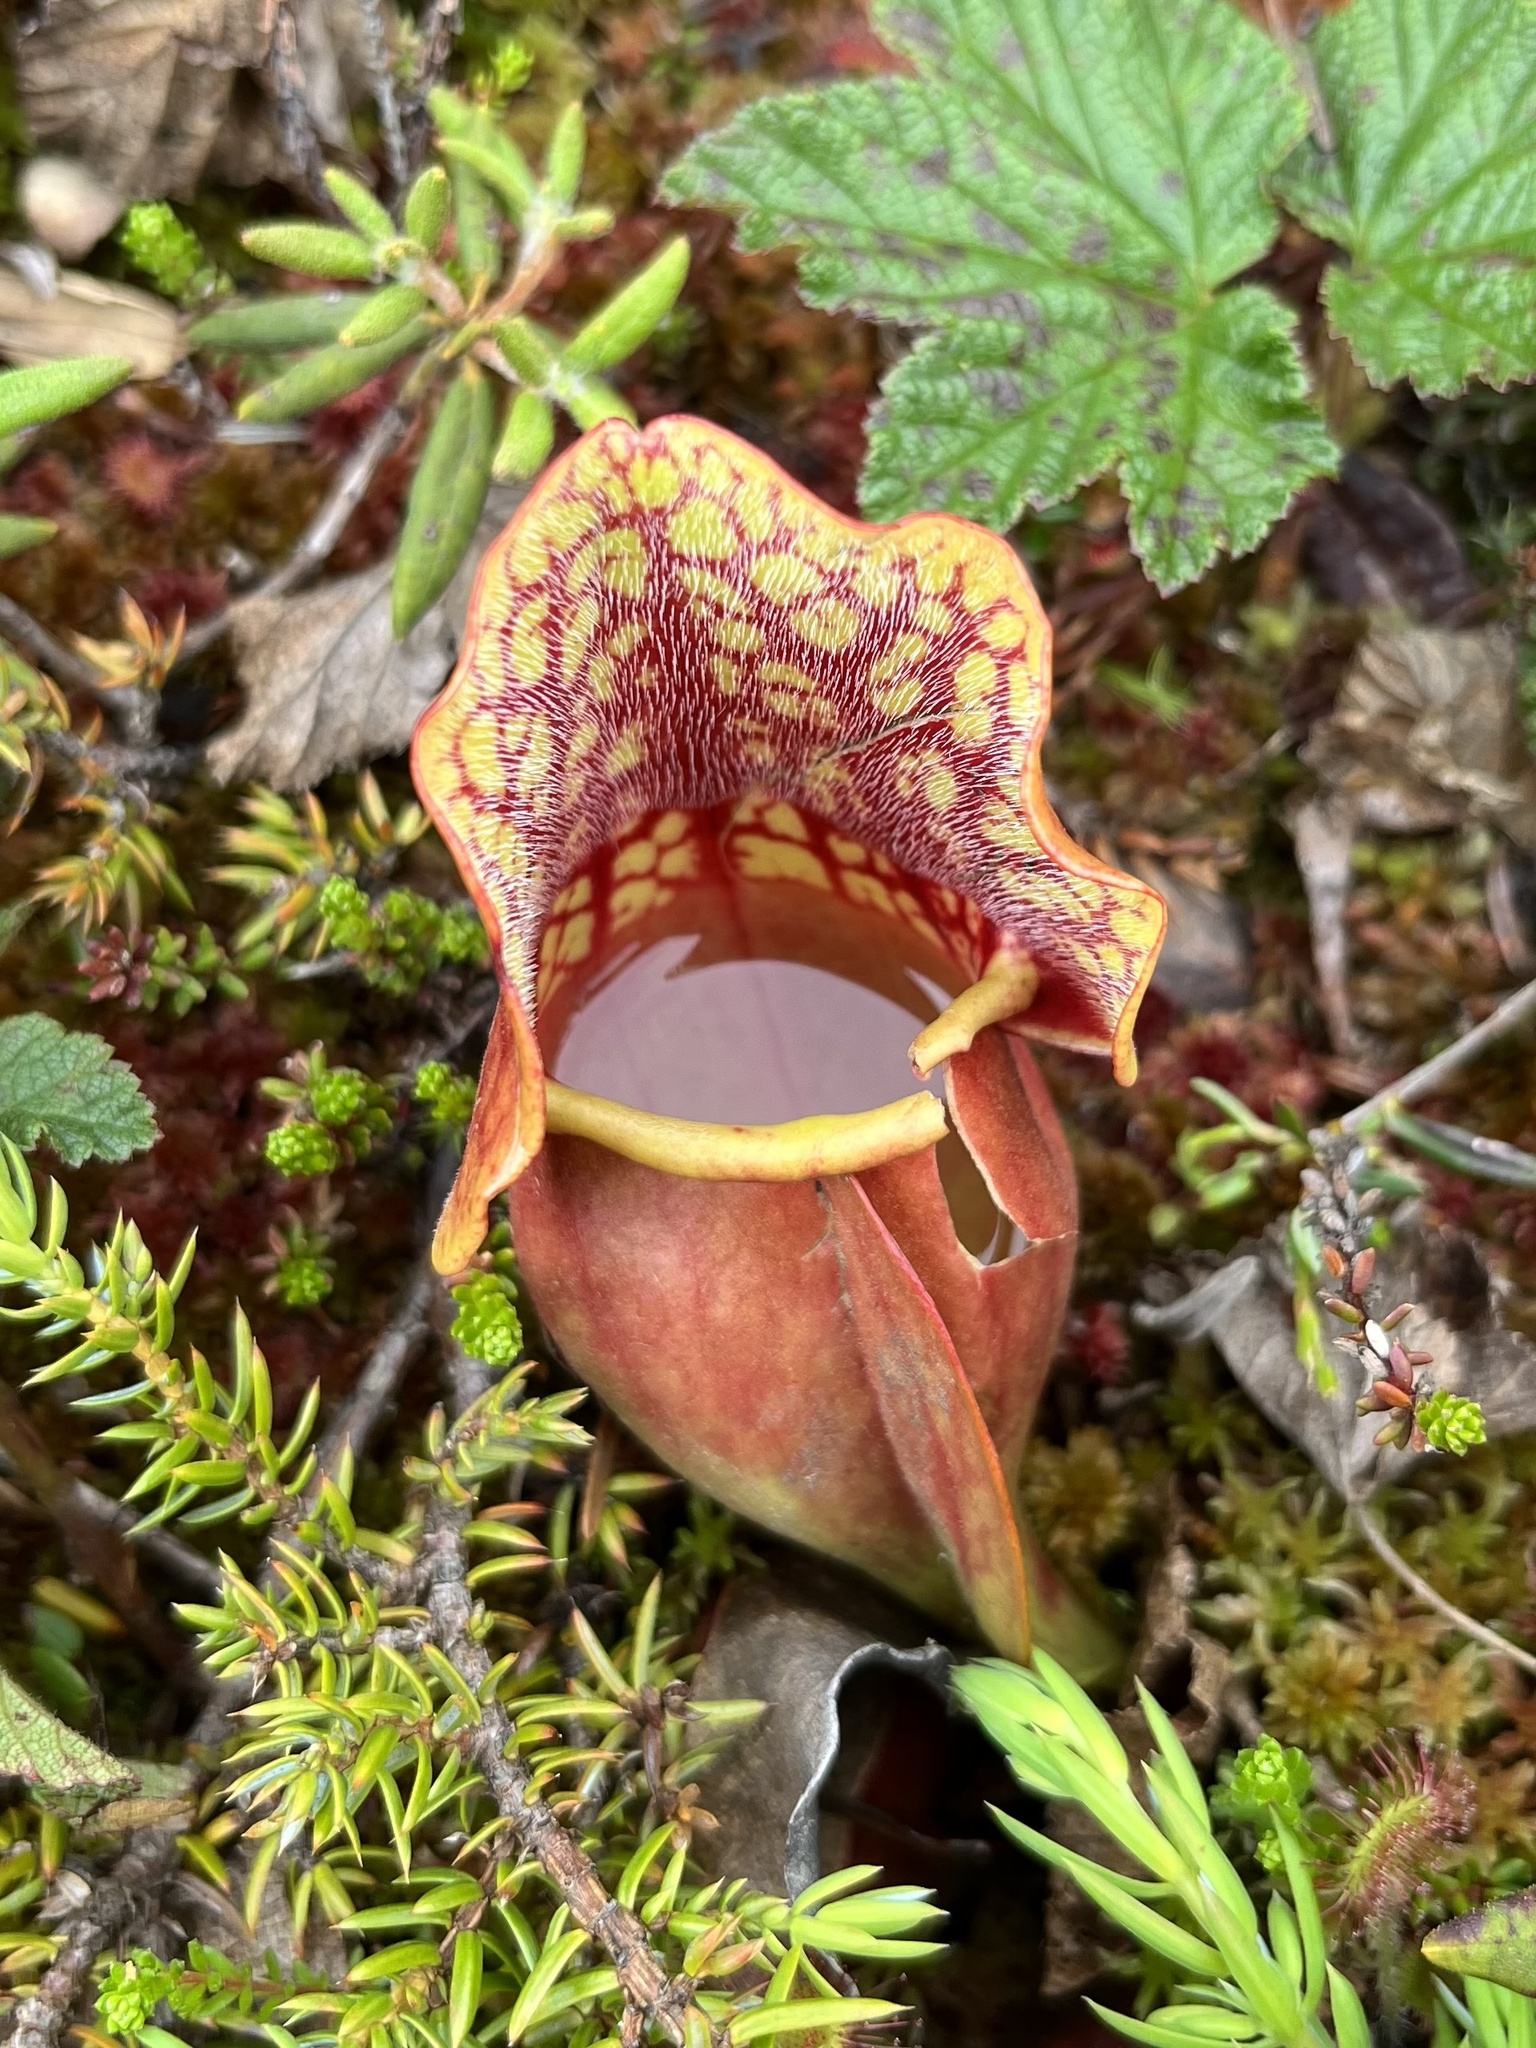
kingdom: Plantae
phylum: Tracheophyta
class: Magnoliopsida
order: Ericales
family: Sarraceniaceae
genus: Sarracenia
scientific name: Sarracenia purpurea
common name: Pitcherplant
